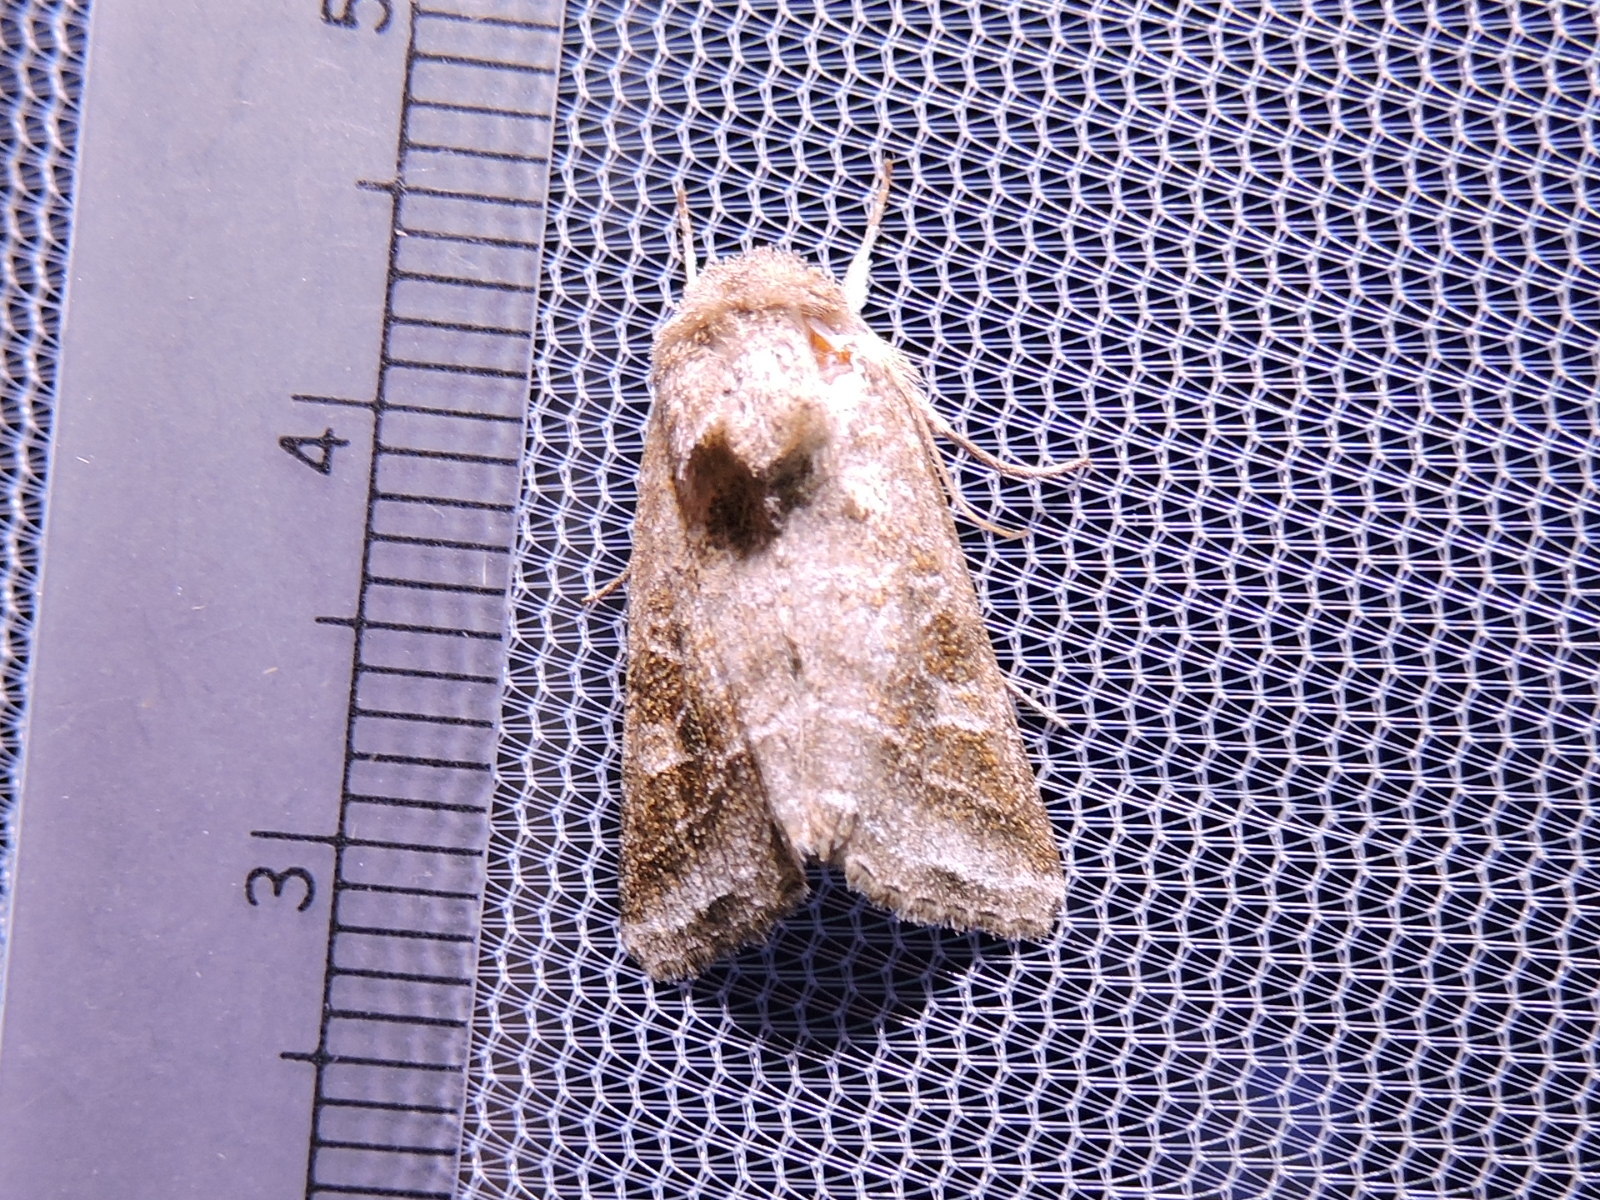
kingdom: Animalia
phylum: Arthropoda
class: Insecta
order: Lepidoptera
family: Noctuidae
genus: Lacinipolia
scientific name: Lacinipolia erecta
